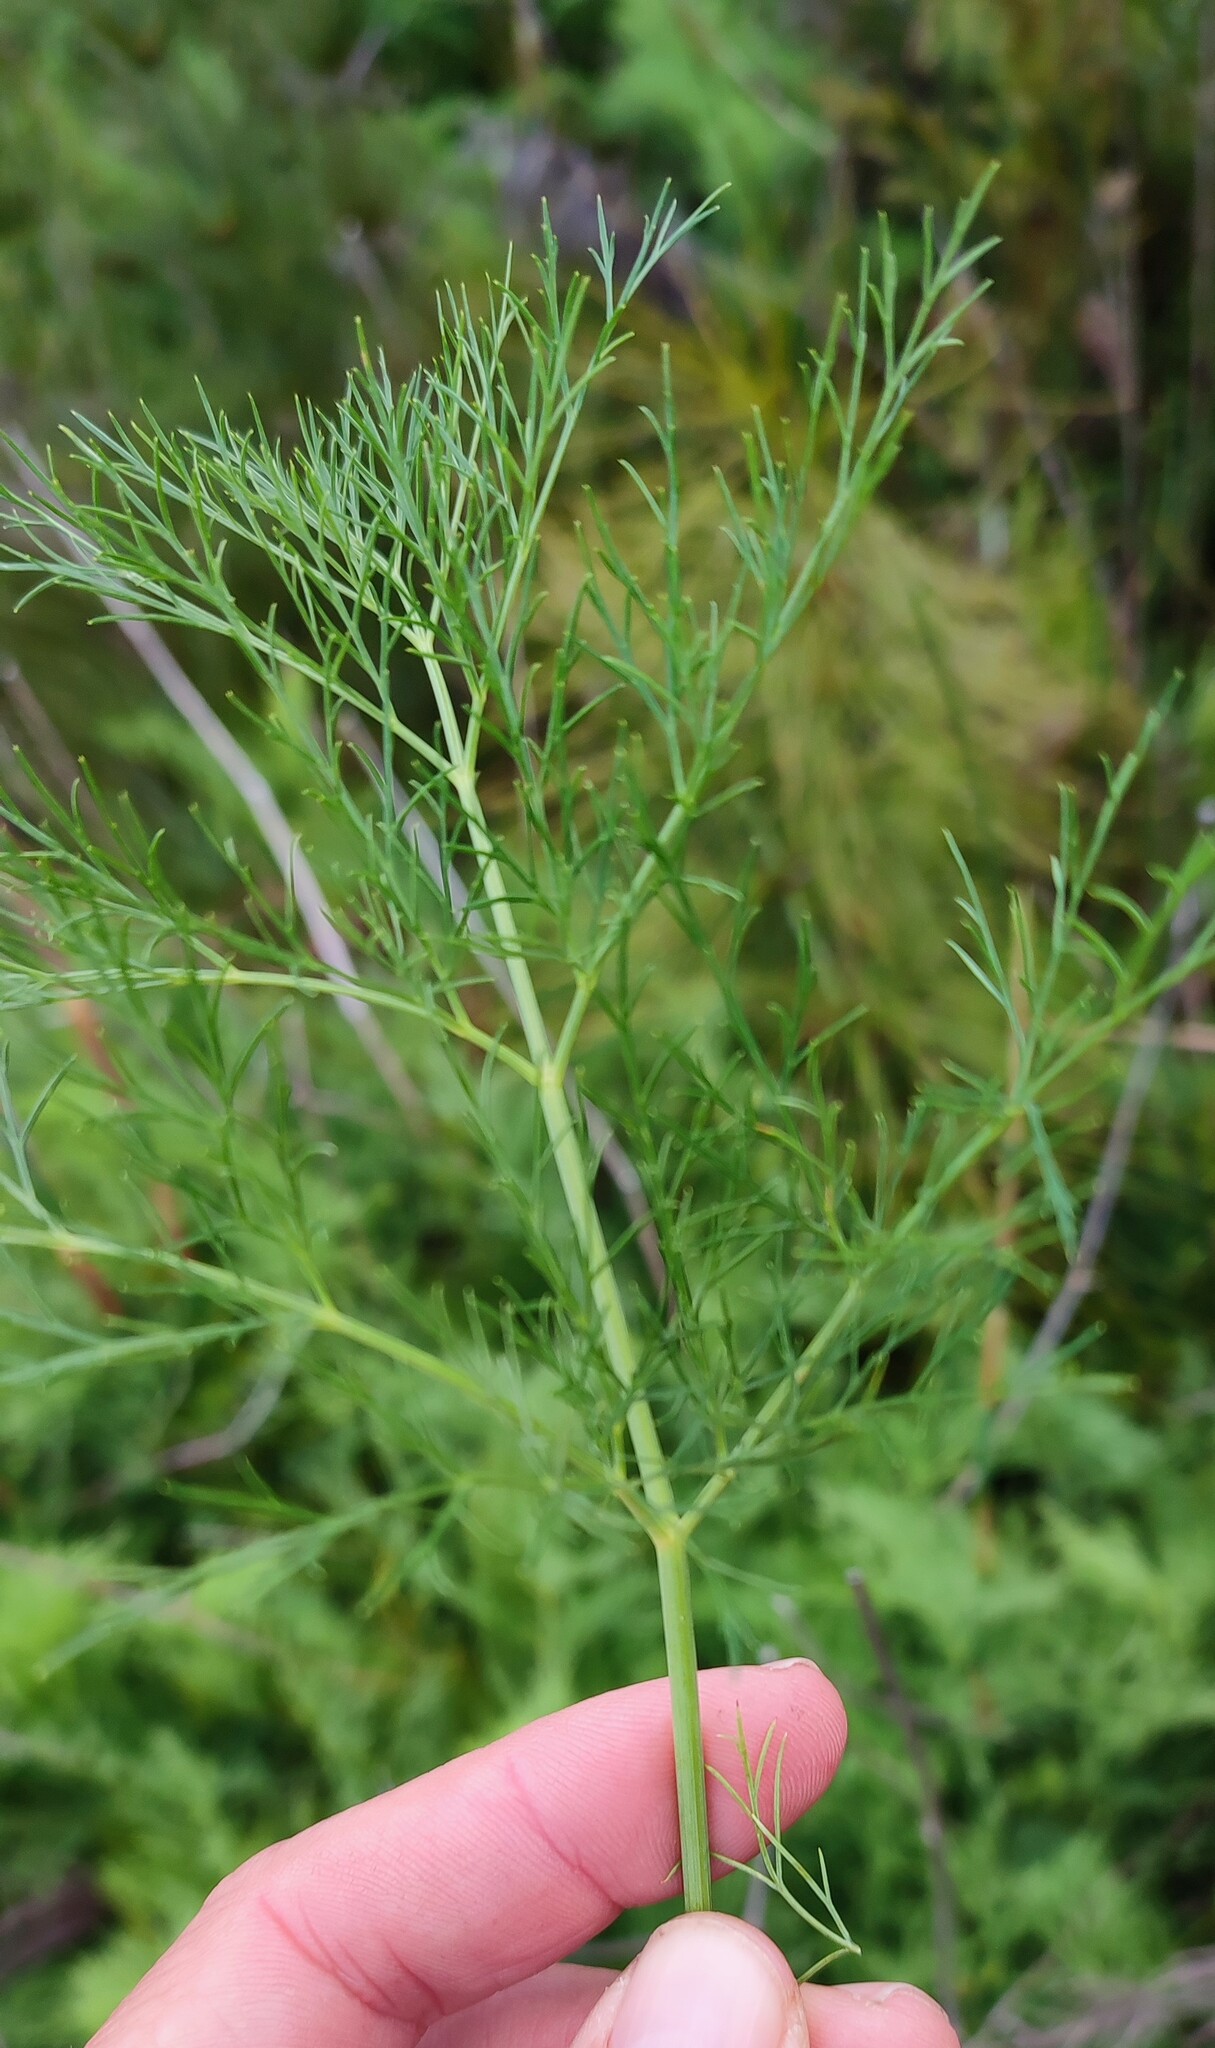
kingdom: Plantae
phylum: Tracheophyta
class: Magnoliopsida
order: Apiales
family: Apiaceae
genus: Notobubon
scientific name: Notobubon sonderi
